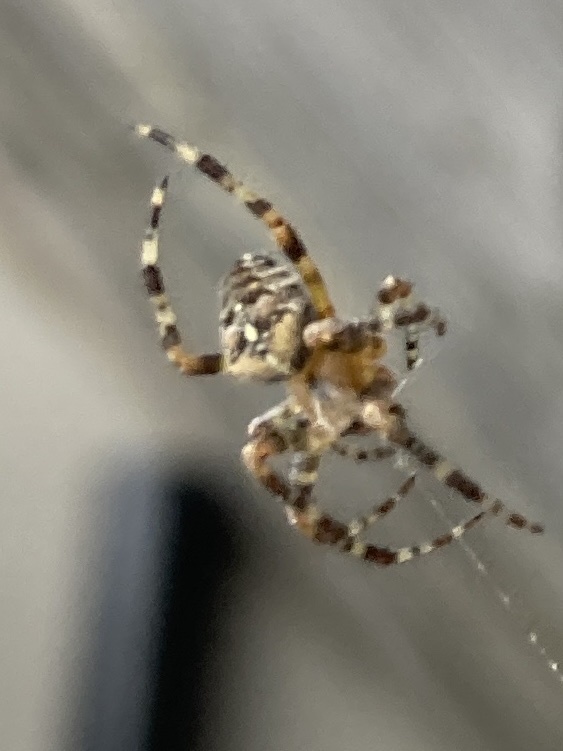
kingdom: Animalia
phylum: Arthropoda
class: Arachnida
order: Araneae
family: Araneidae
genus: Araneus
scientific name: Araneus diadematus
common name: Cross orbweaver
